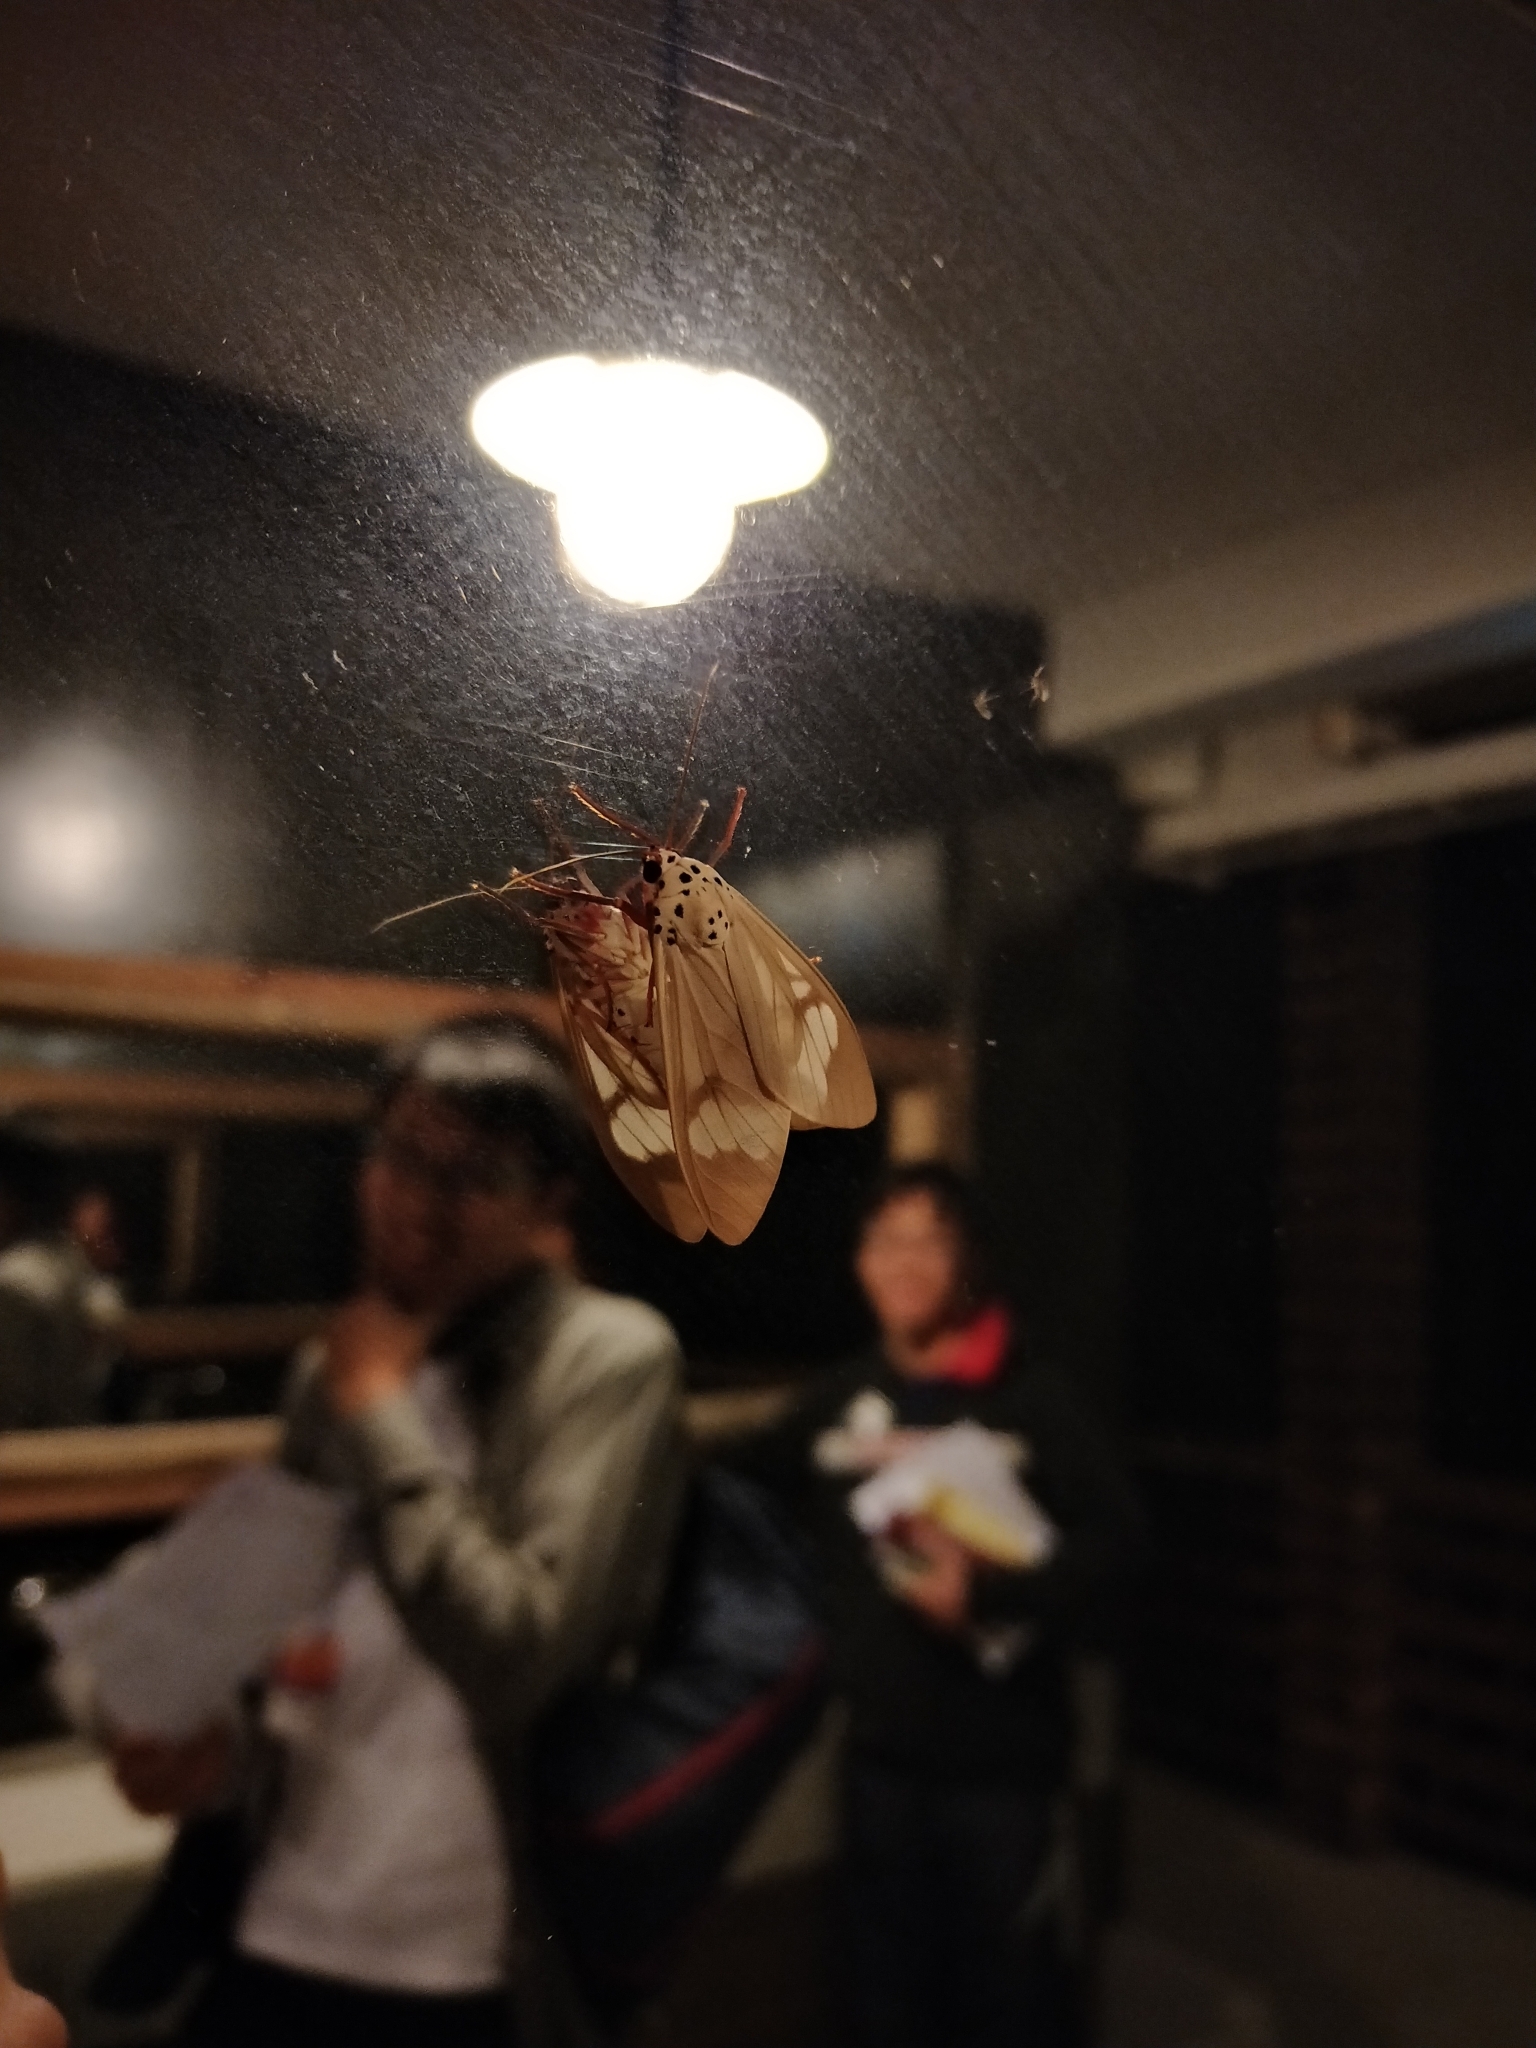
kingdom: Animalia
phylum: Arthropoda
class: Insecta
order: Lepidoptera
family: Erebidae
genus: Amerila
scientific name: Amerila astreus
